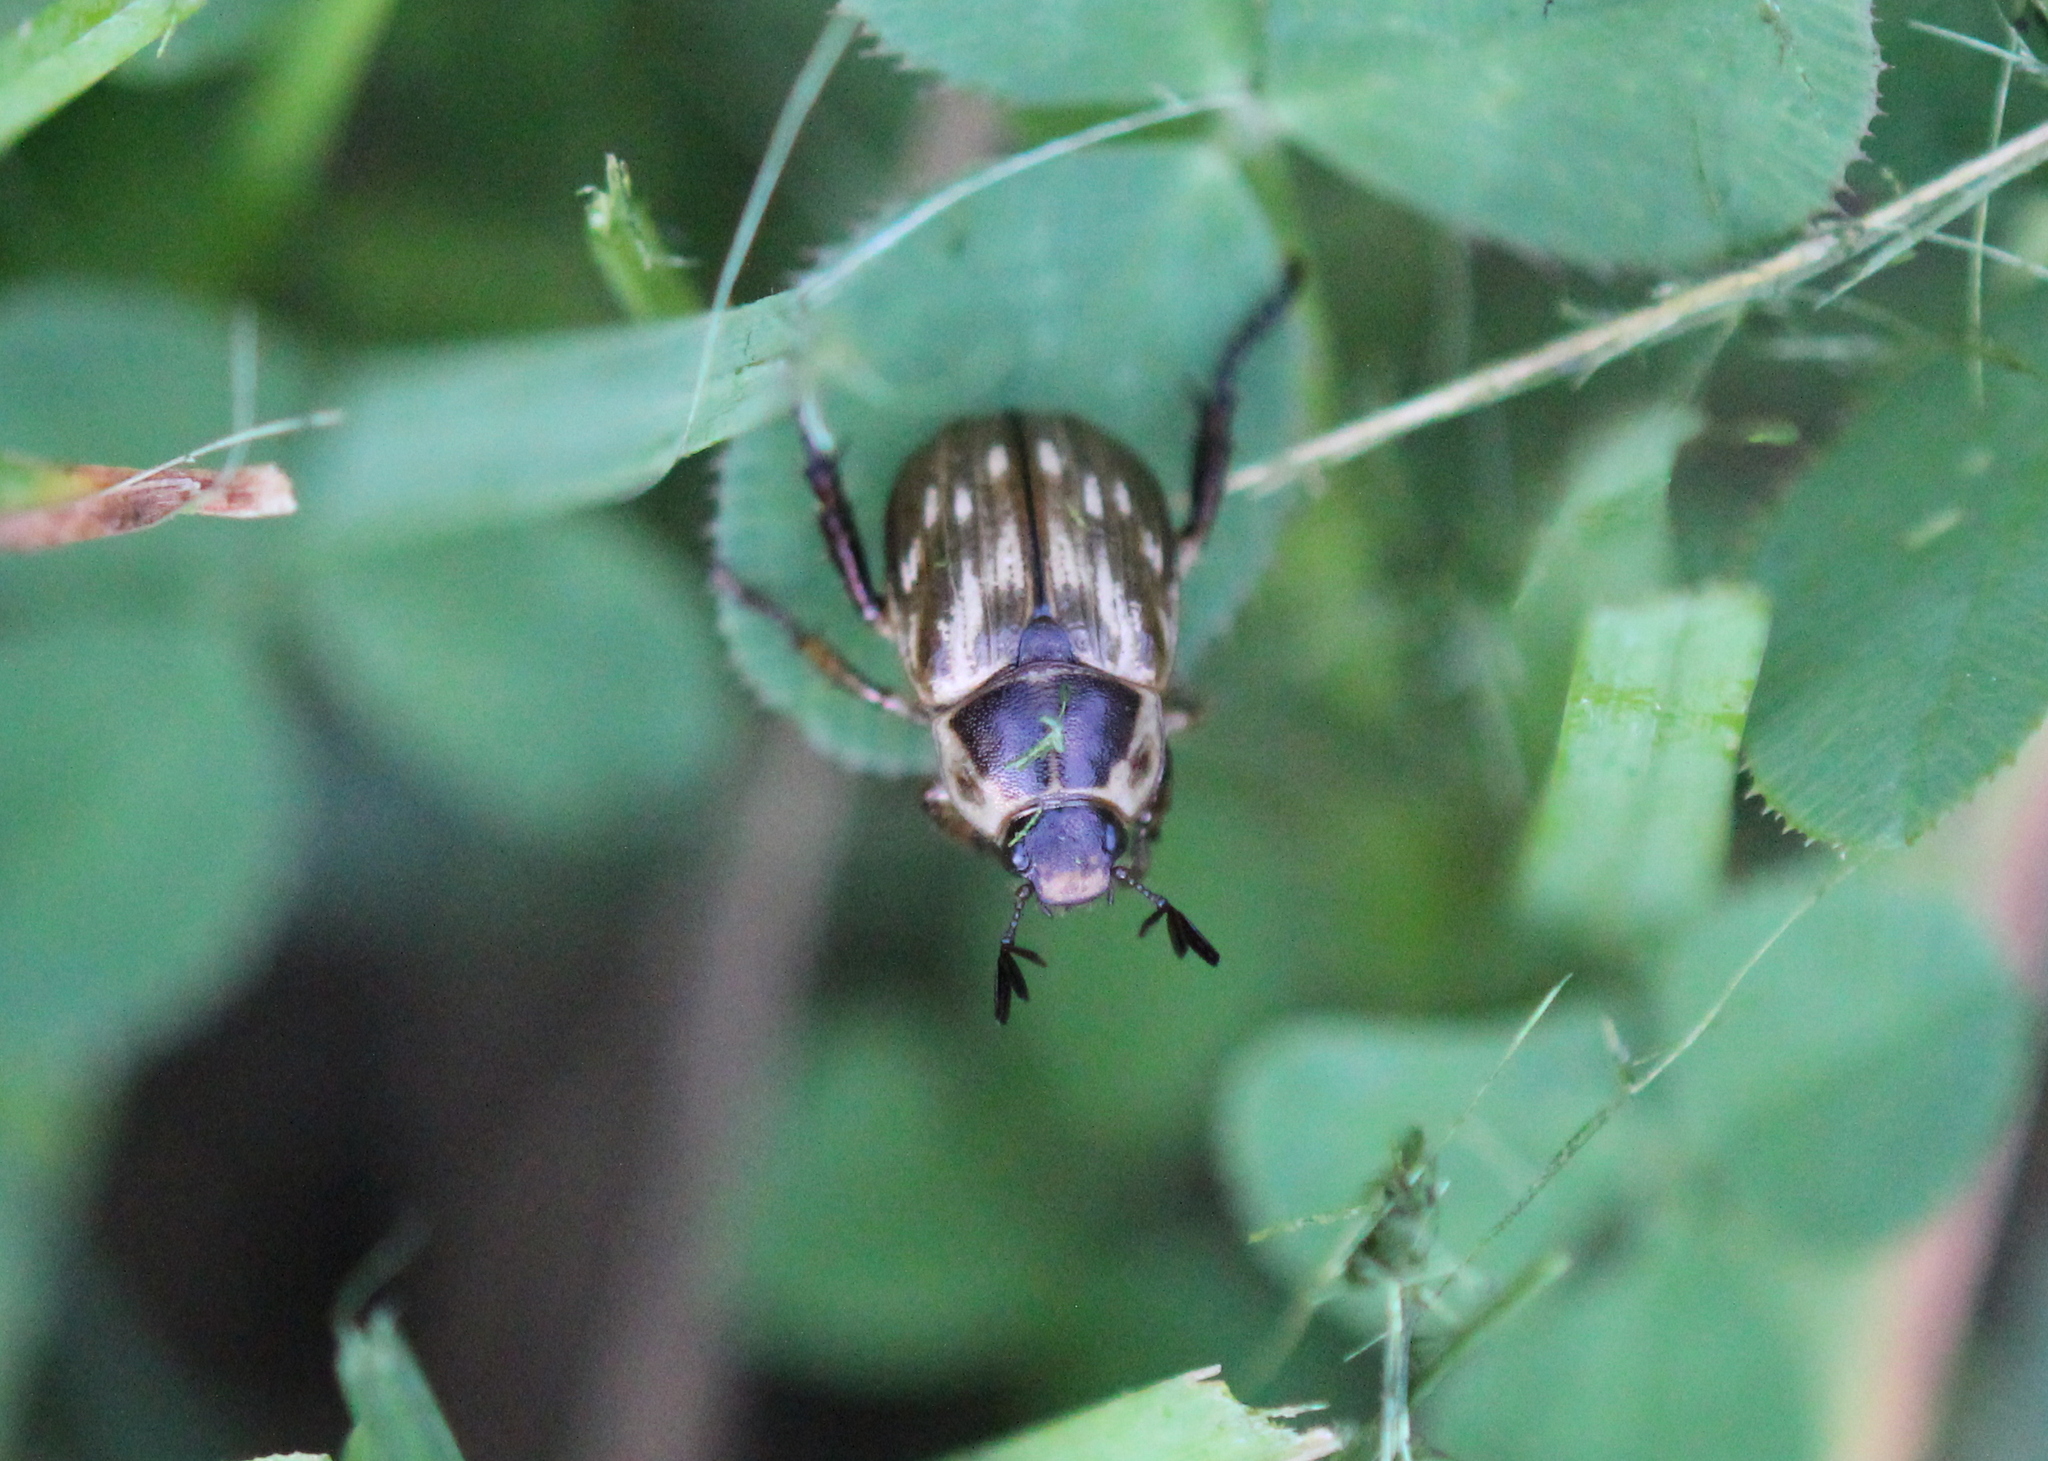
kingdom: Animalia
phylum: Arthropoda
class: Insecta
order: Coleoptera
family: Scarabaeidae
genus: Exomala
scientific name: Exomala orientalis
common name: Oriental beetle
